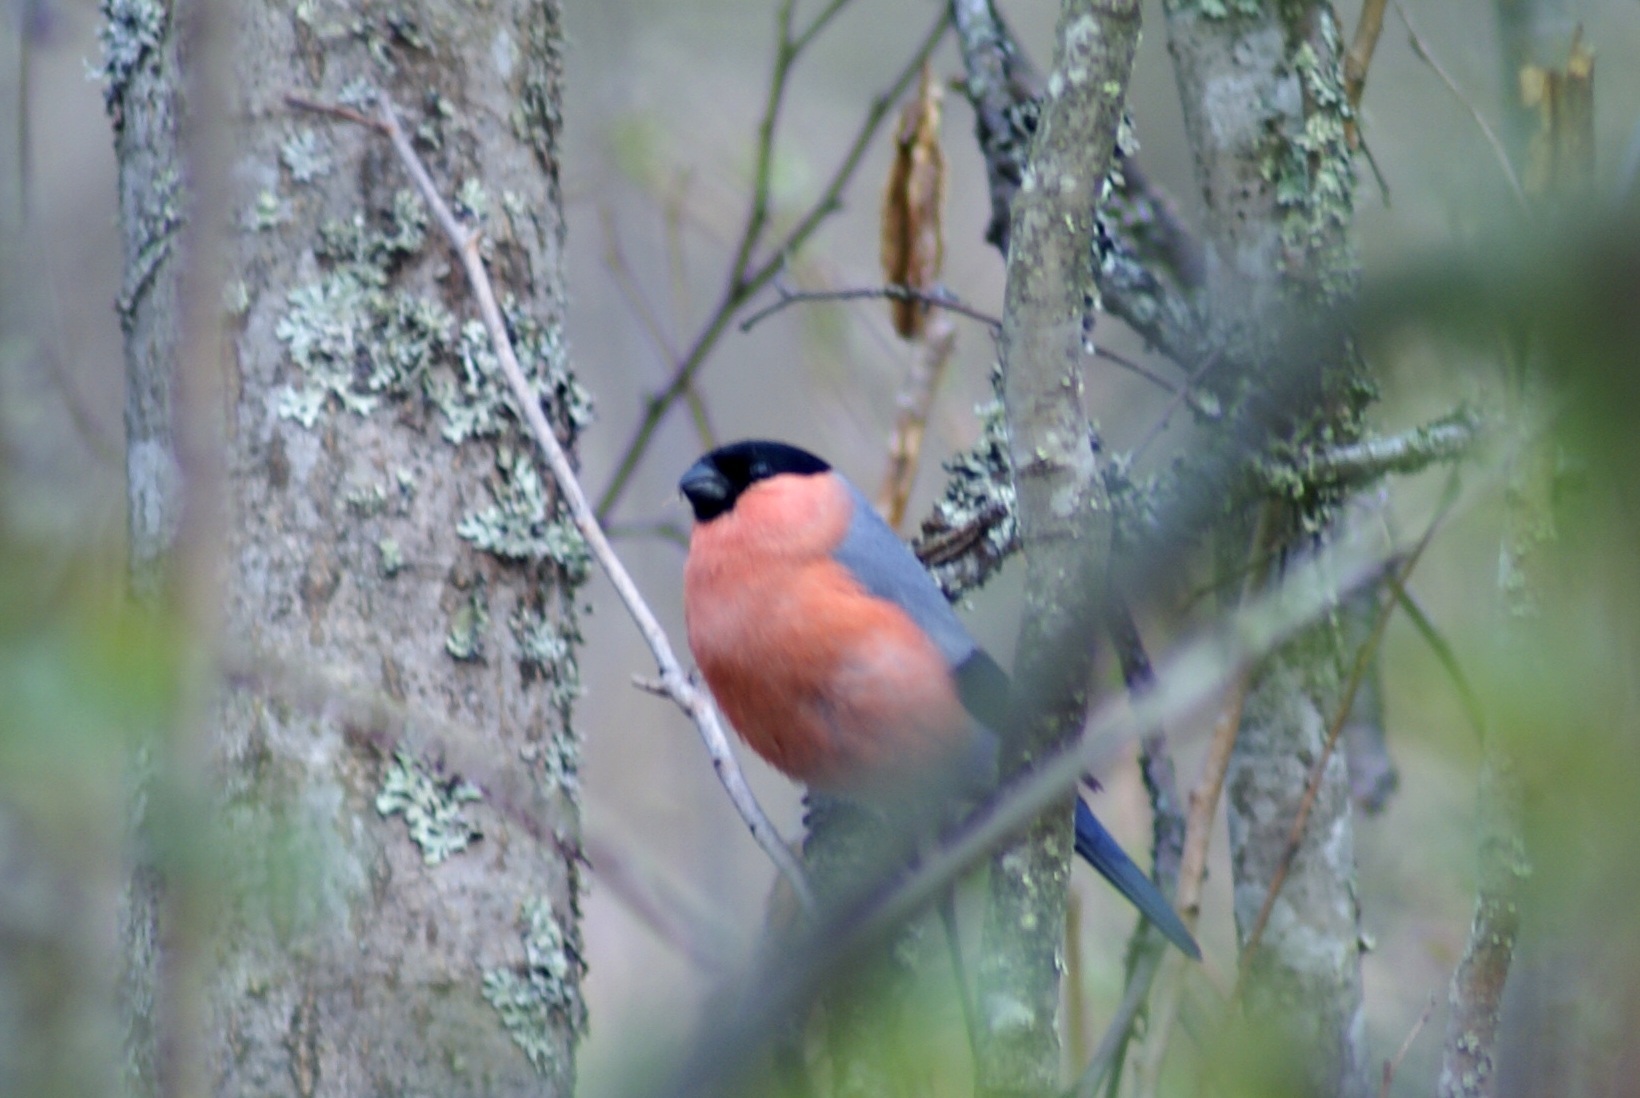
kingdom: Animalia
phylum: Chordata
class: Aves
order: Passeriformes
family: Fringillidae
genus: Pyrrhula
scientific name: Pyrrhula pyrrhula
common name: Eurasian bullfinch
